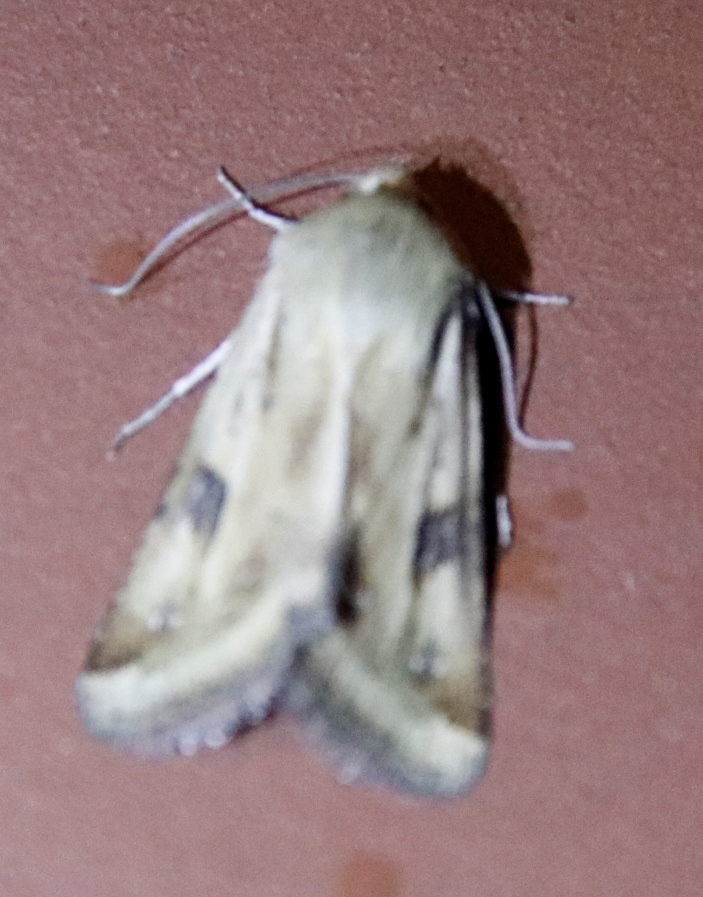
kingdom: Animalia
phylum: Arthropoda
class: Insecta
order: Lepidoptera
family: Noctuidae
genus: Heliothis
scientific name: Heliothis scutuligera
